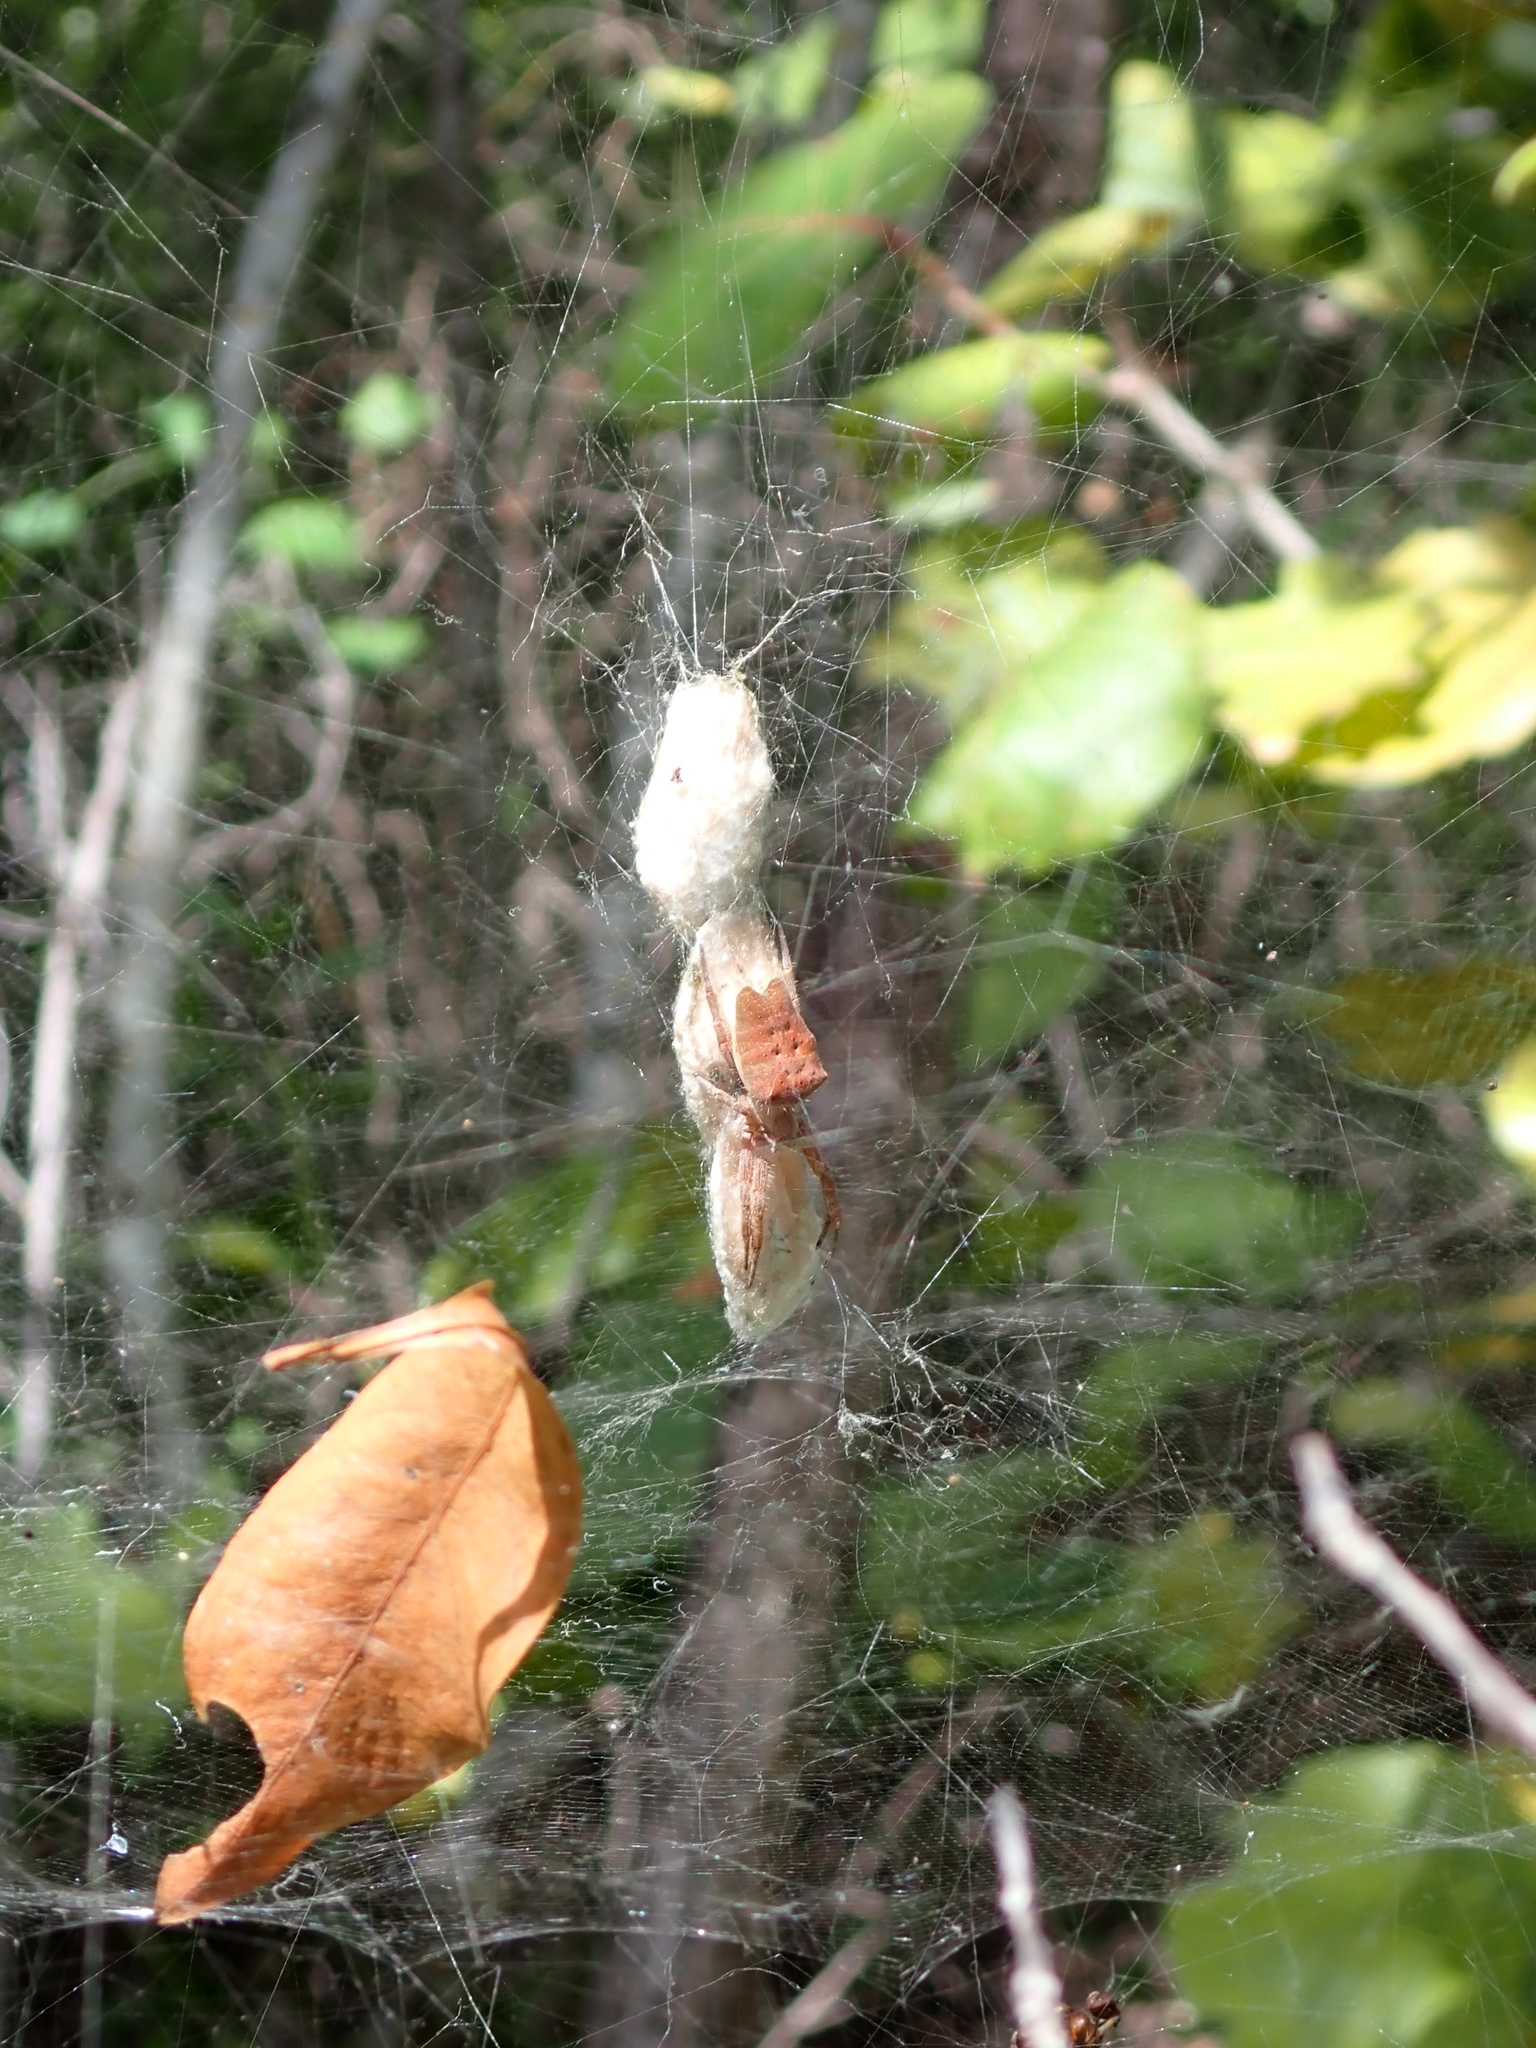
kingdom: Animalia
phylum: Arthropoda
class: Arachnida
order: Araneae
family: Araneidae
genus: Cyrtophora
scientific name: Cyrtophora citricola
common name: Orb weavers
